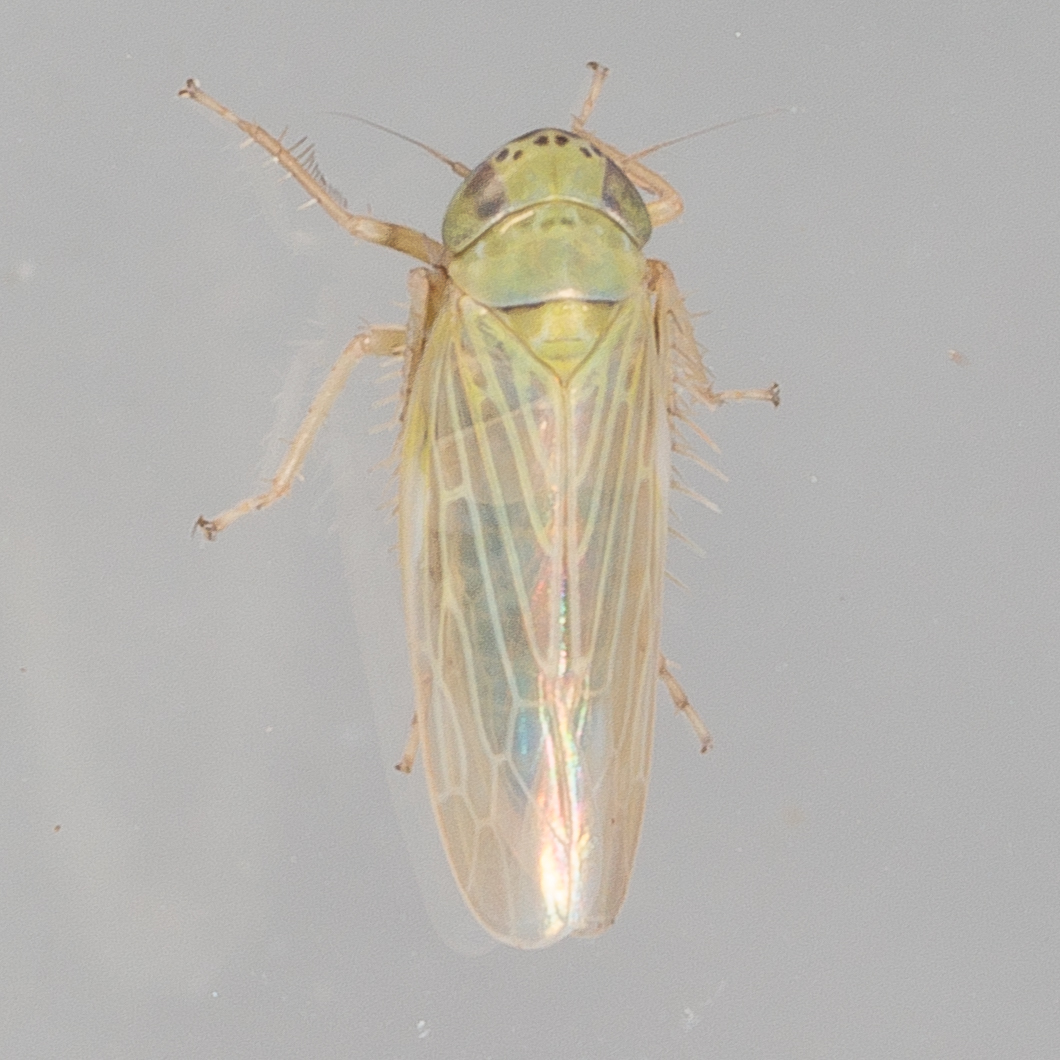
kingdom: Animalia
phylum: Arthropoda
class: Insecta
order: Hemiptera
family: Cicadellidae
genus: Graminella
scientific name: Graminella nigrifrons
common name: Blackfaced leafhopper
